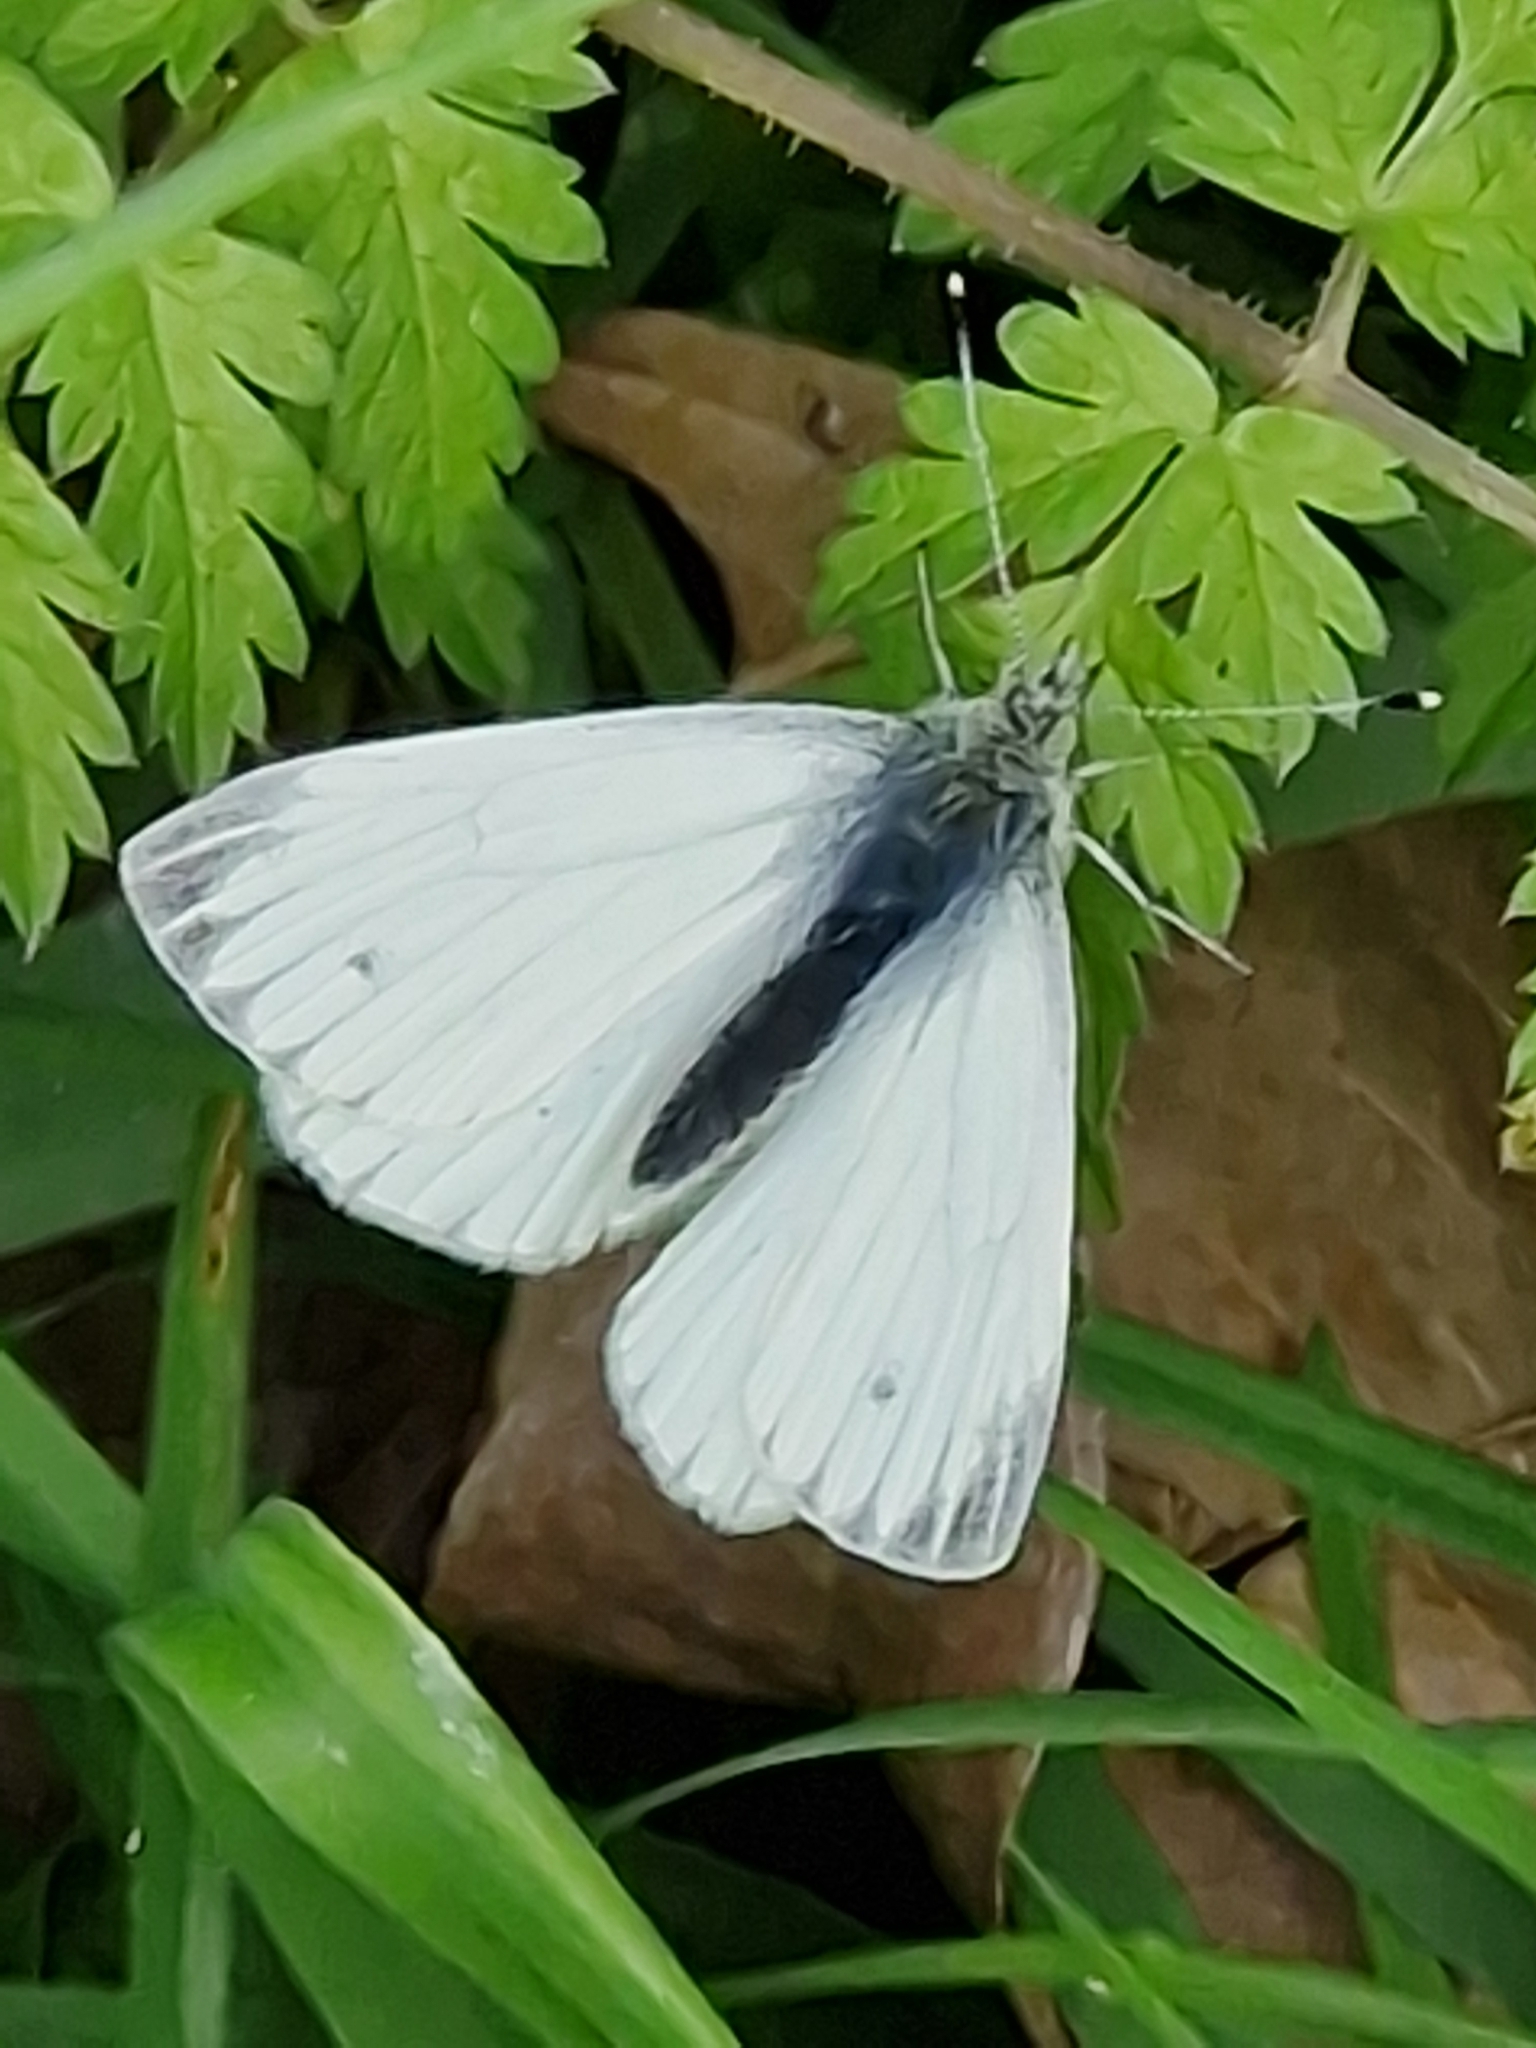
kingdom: Animalia
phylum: Arthropoda
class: Insecta
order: Lepidoptera
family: Pieridae
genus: Pieris
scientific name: Pieris napi
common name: Green-veined white
